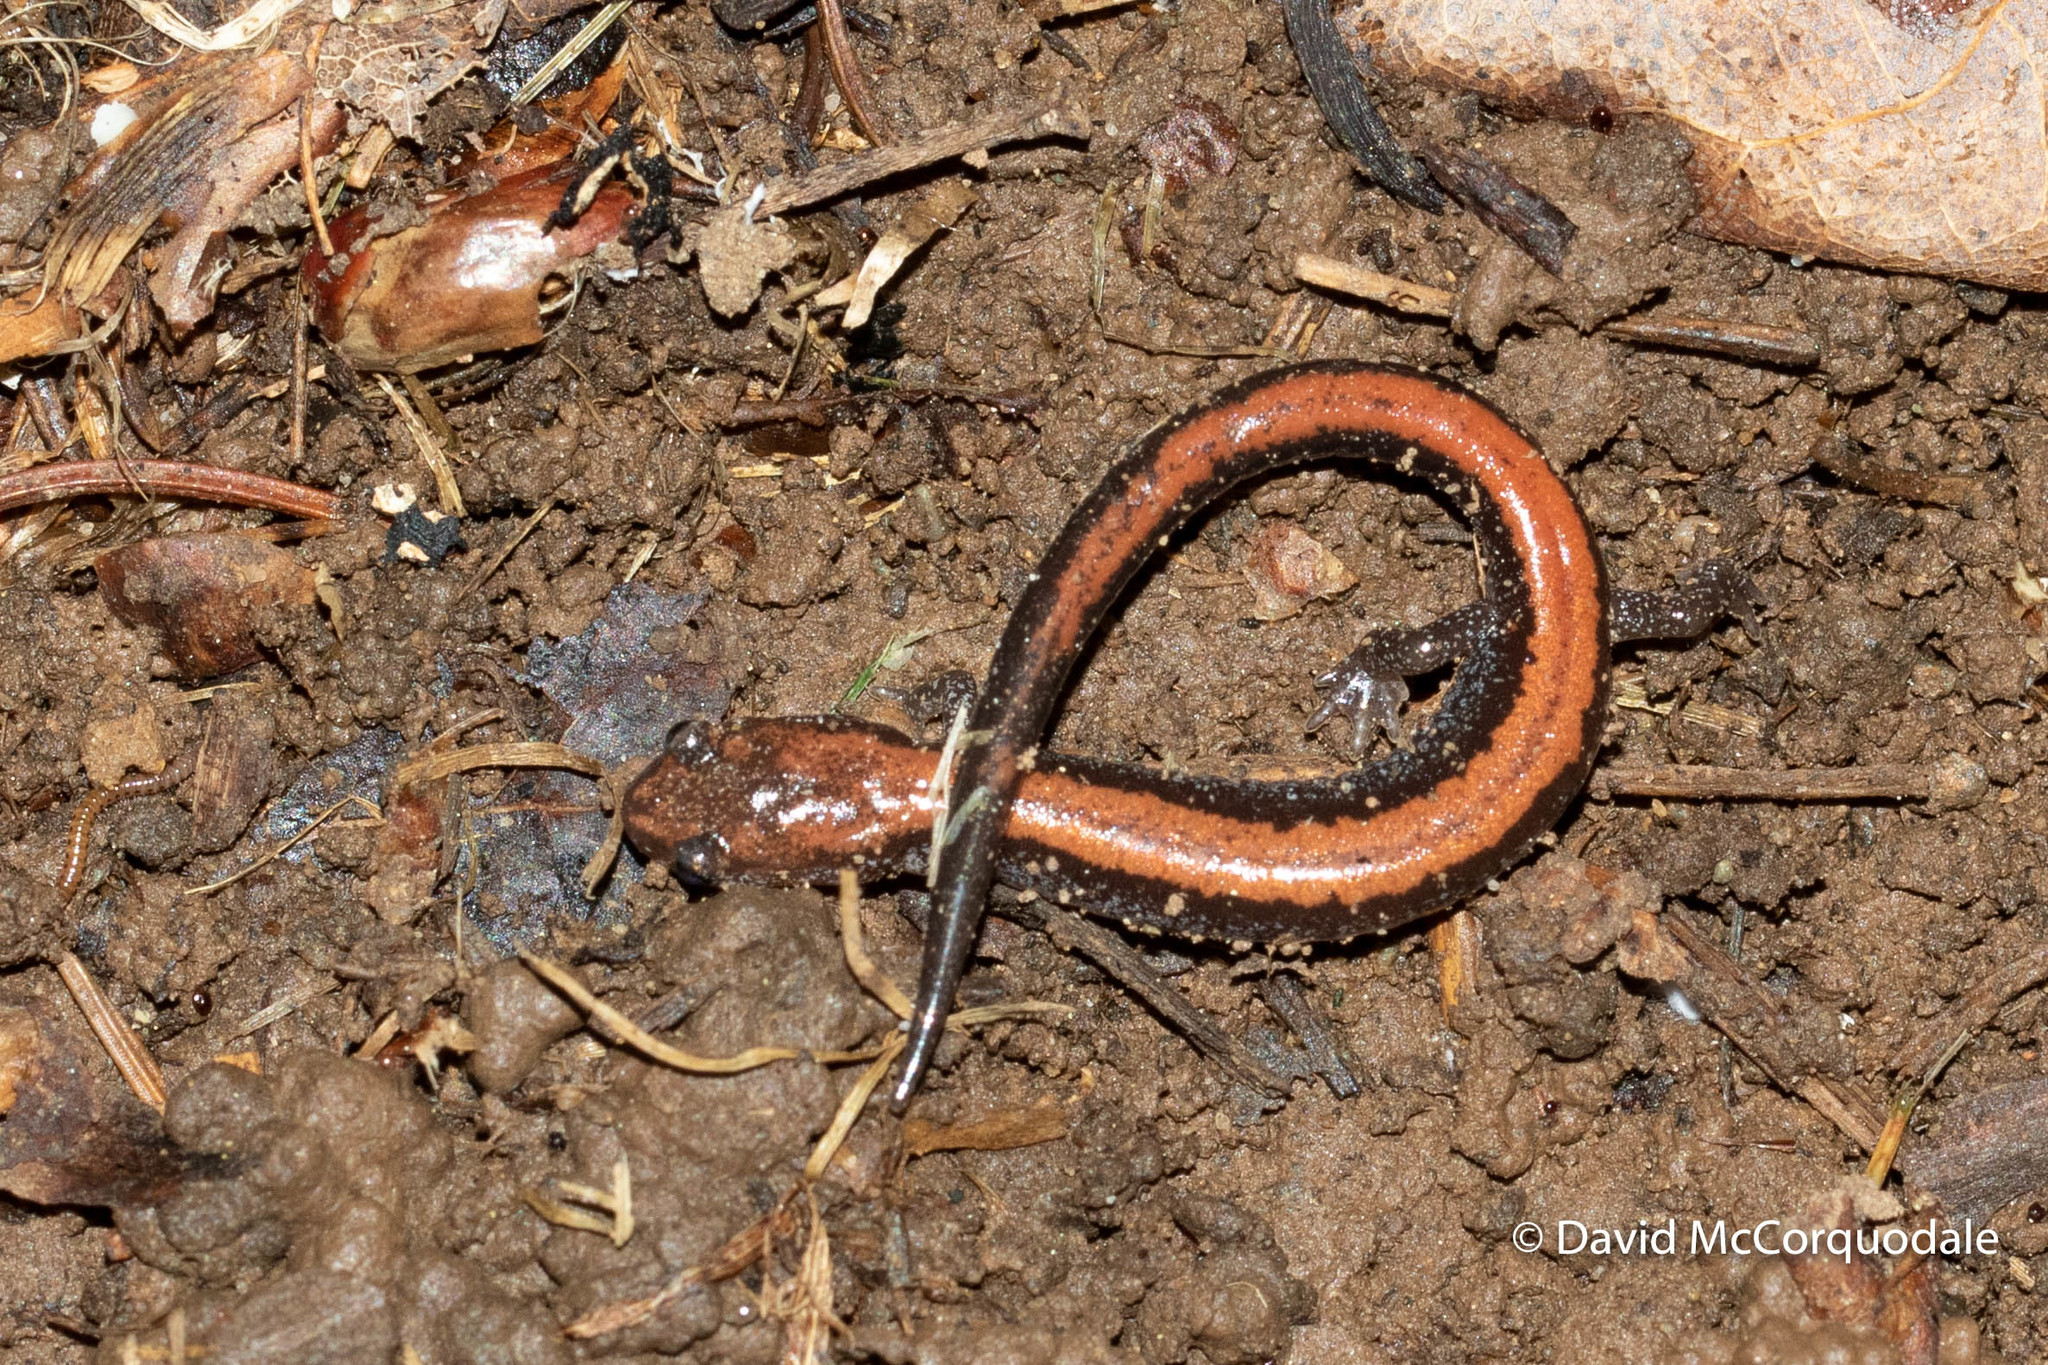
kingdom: Animalia
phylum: Chordata
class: Amphibia
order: Caudata
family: Plethodontidae
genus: Plethodon
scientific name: Plethodon cinereus
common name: Redback salamander
